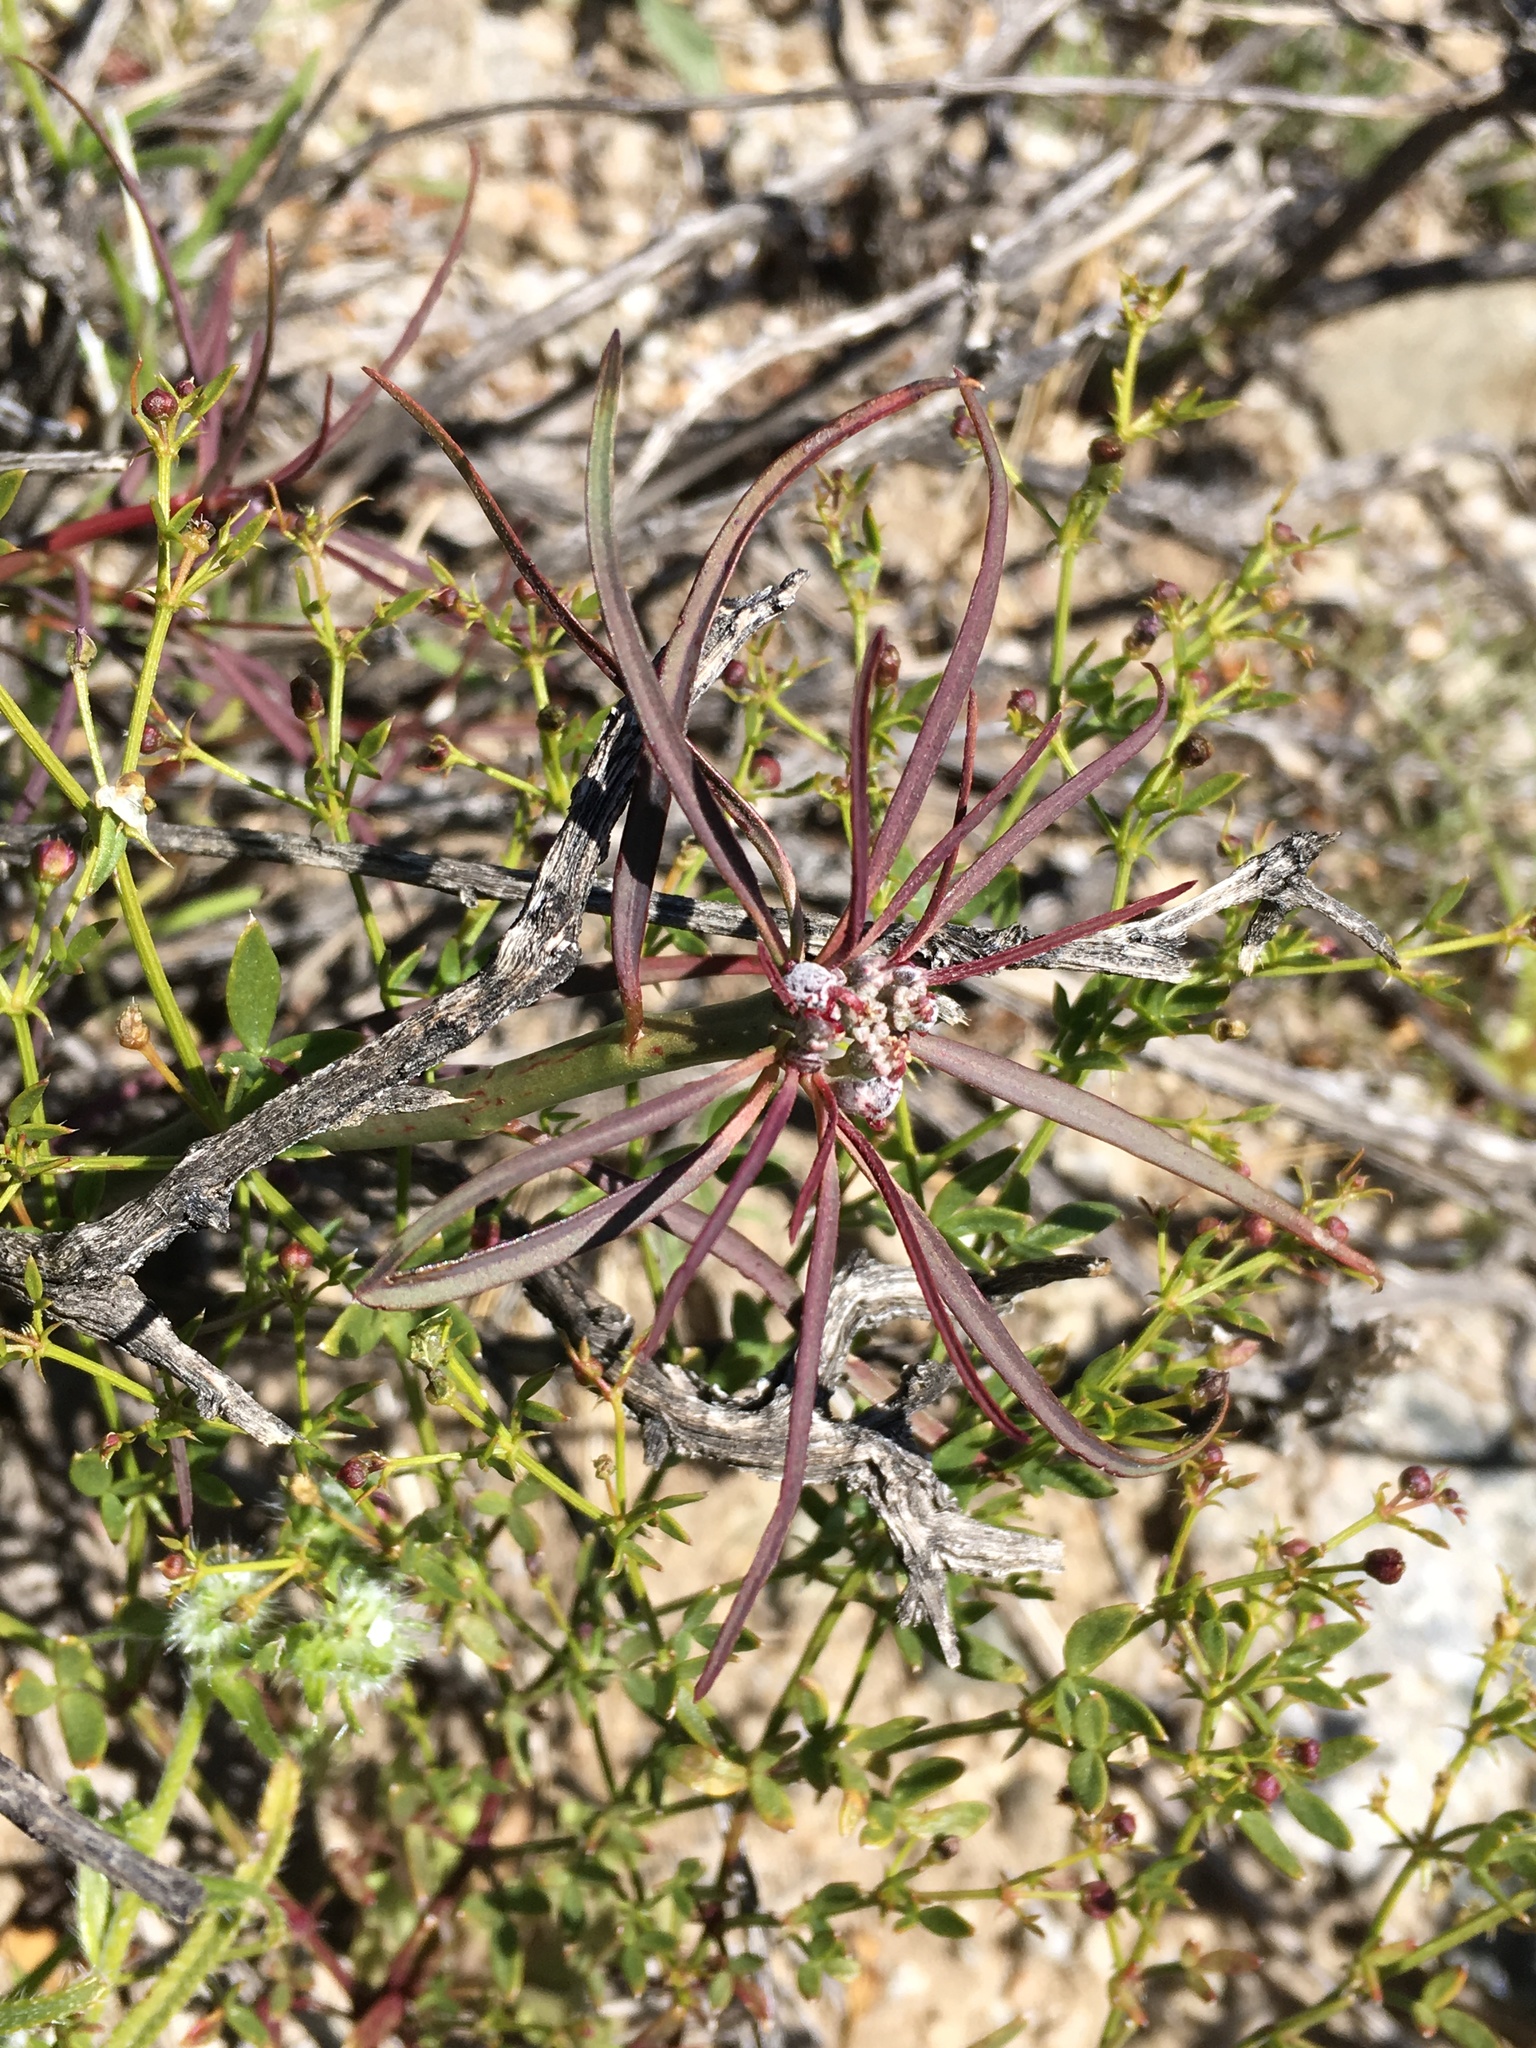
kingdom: Plantae
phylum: Tracheophyta
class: Magnoliopsida
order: Malpighiales
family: Euphorbiaceae
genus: Euphorbia
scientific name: Euphorbia eriantha
